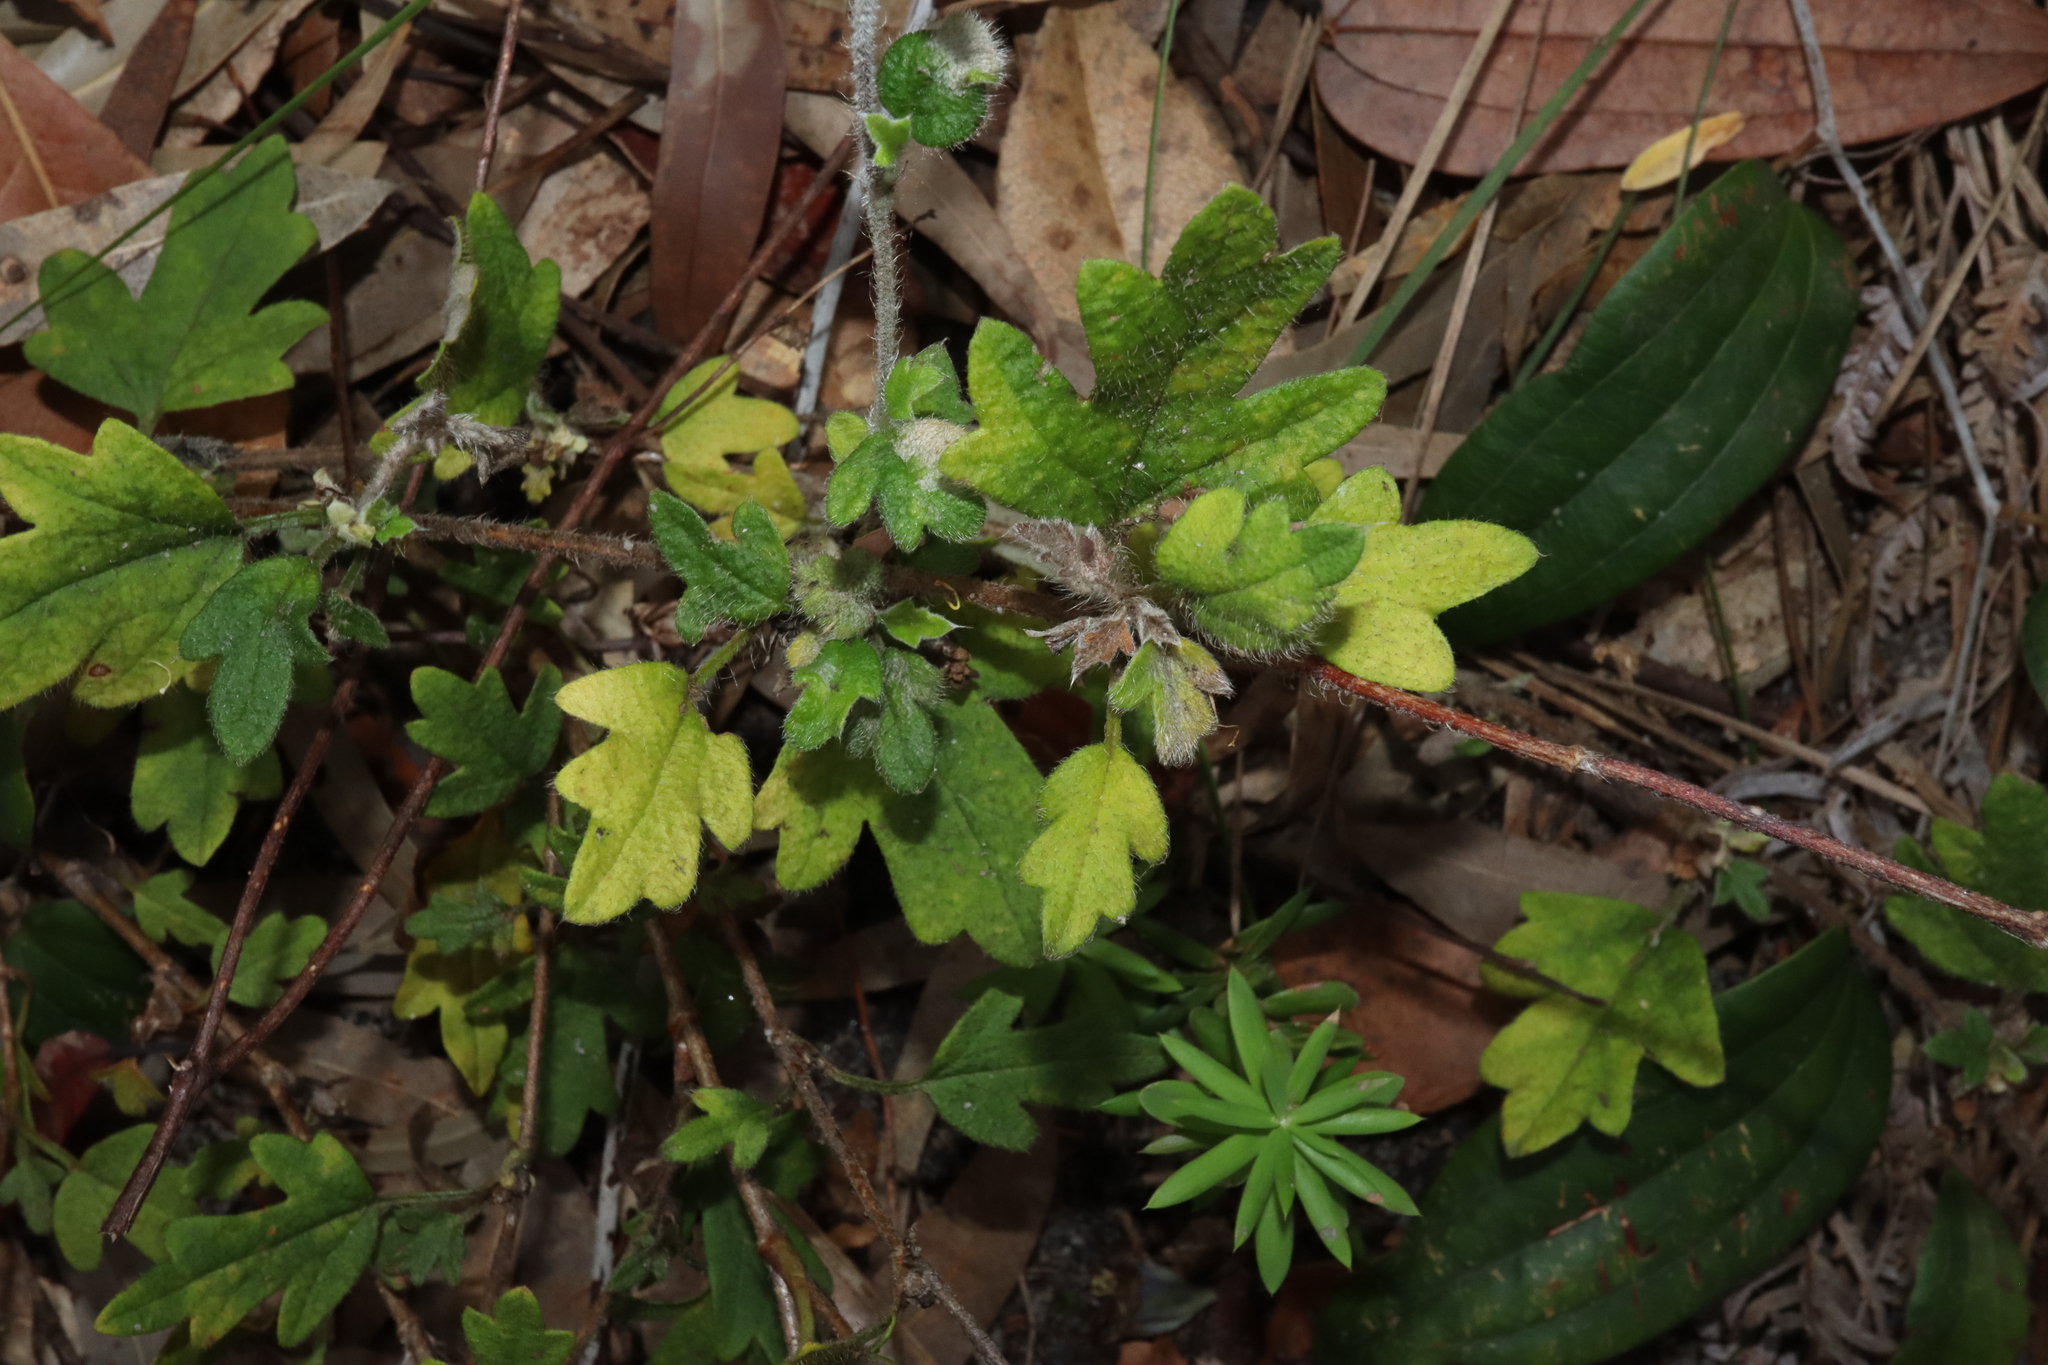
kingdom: Plantae
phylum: Tracheophyta
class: Magnoliopsida
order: Apiales
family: Apiaceae
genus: Xanthosia
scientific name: Xanthosia pilosa
